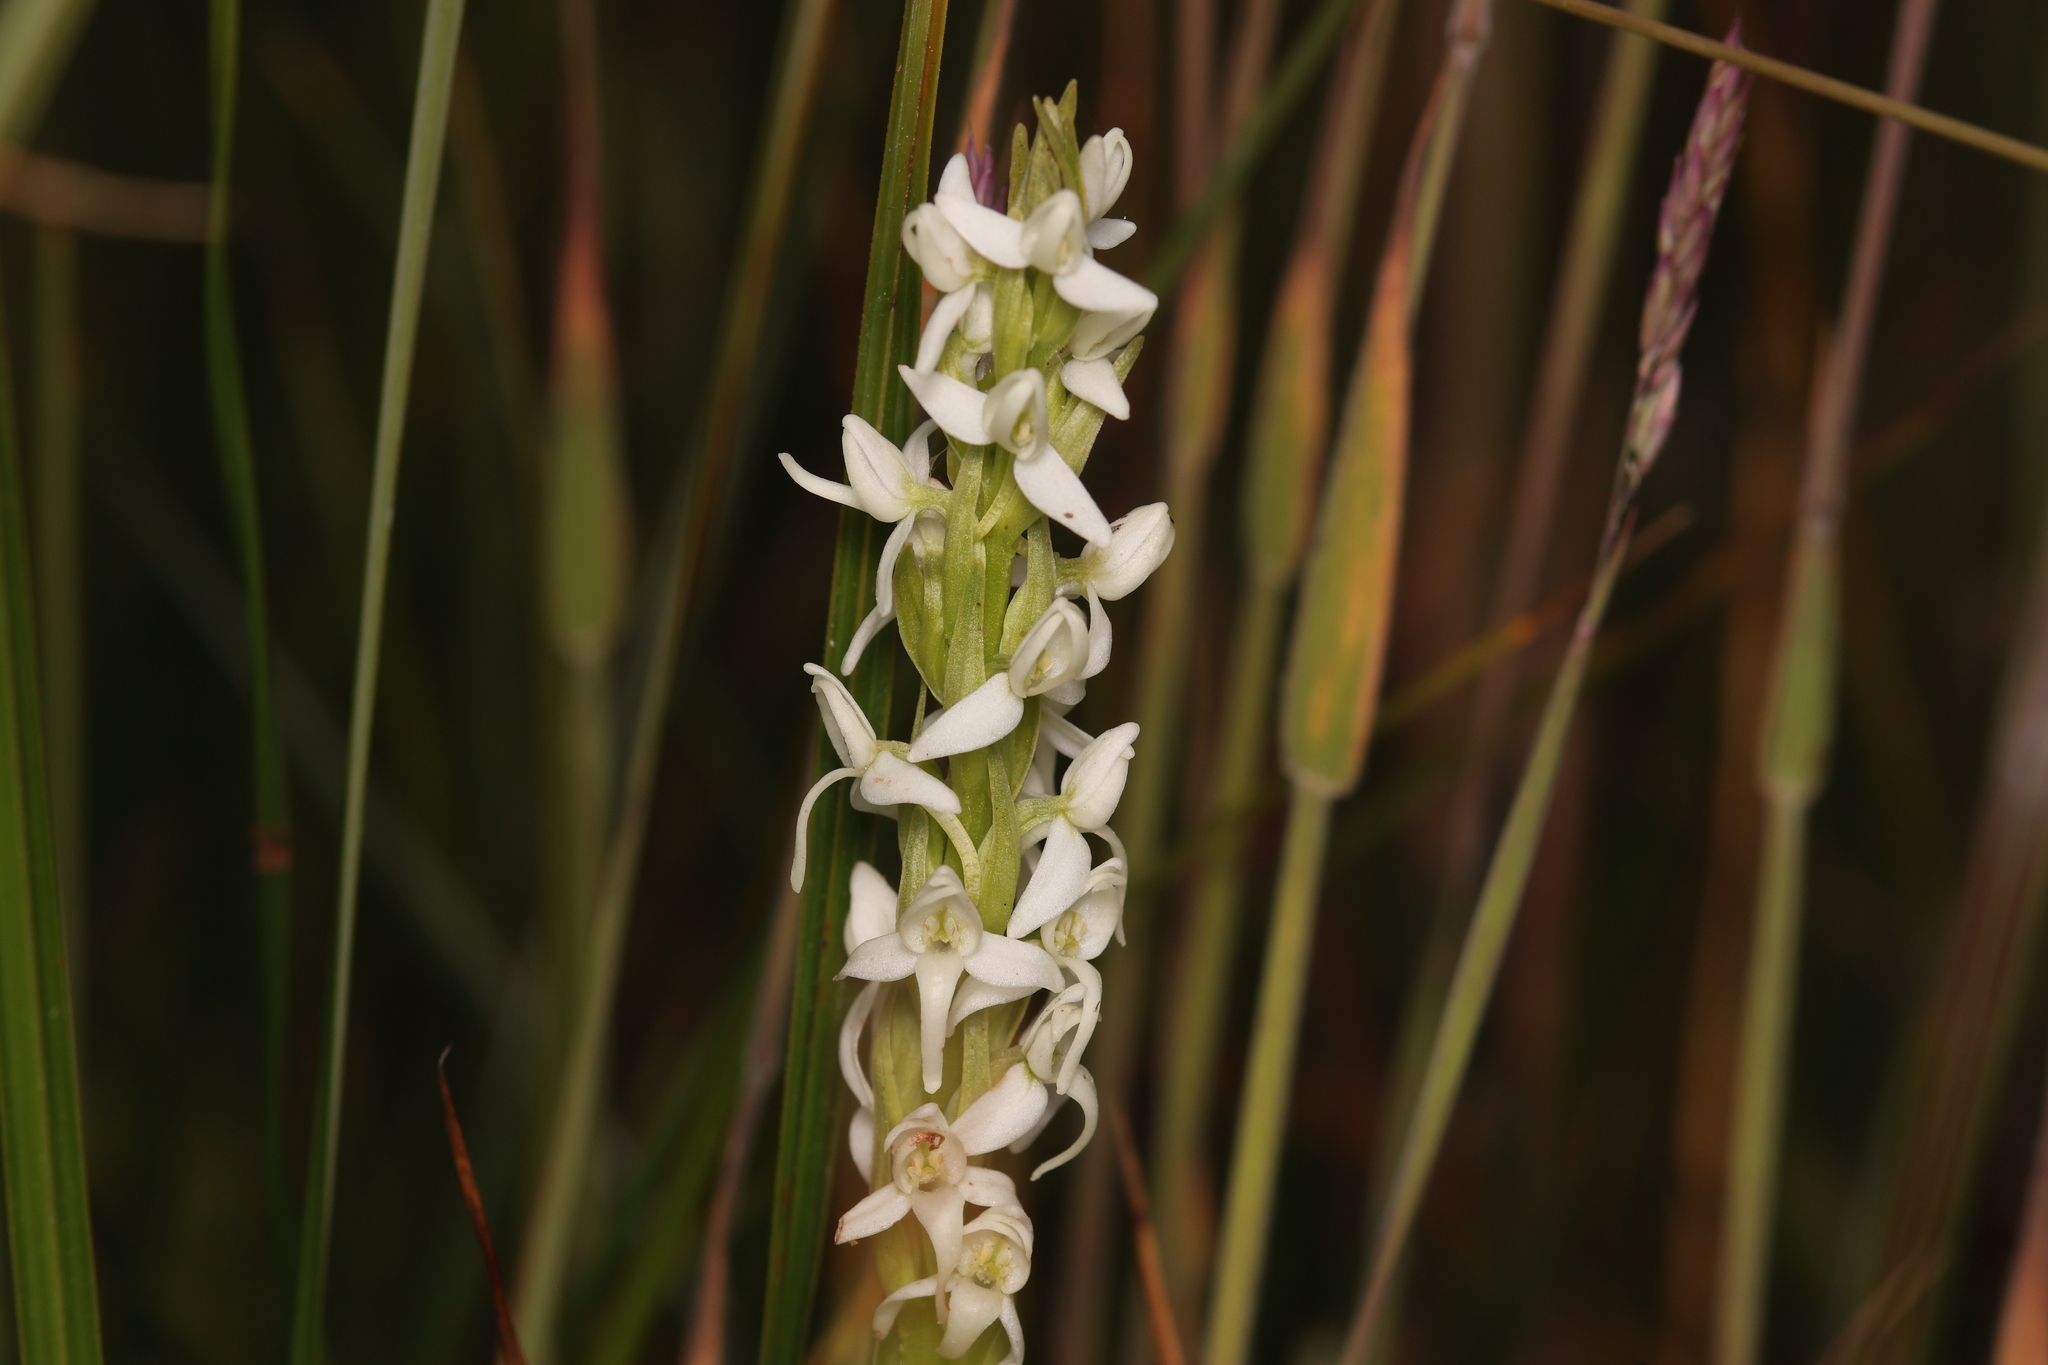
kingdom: Plantae
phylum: Tracheophyta
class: Liliopsida
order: Asparagales
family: Orchidaceae
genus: Platanthera
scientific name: Platanthera dilatata
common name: Bog candles
